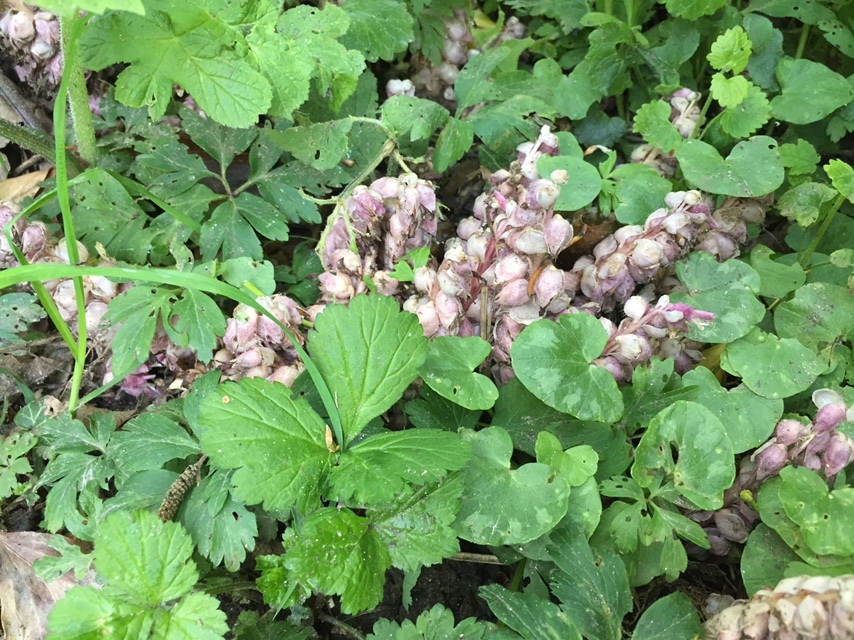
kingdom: Plantae
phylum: Tracheophyta
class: Magnoliopsida
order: Lamiales
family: Orobanchaceae
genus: Lathraea
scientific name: Lathraea squamaria
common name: Toothwort
